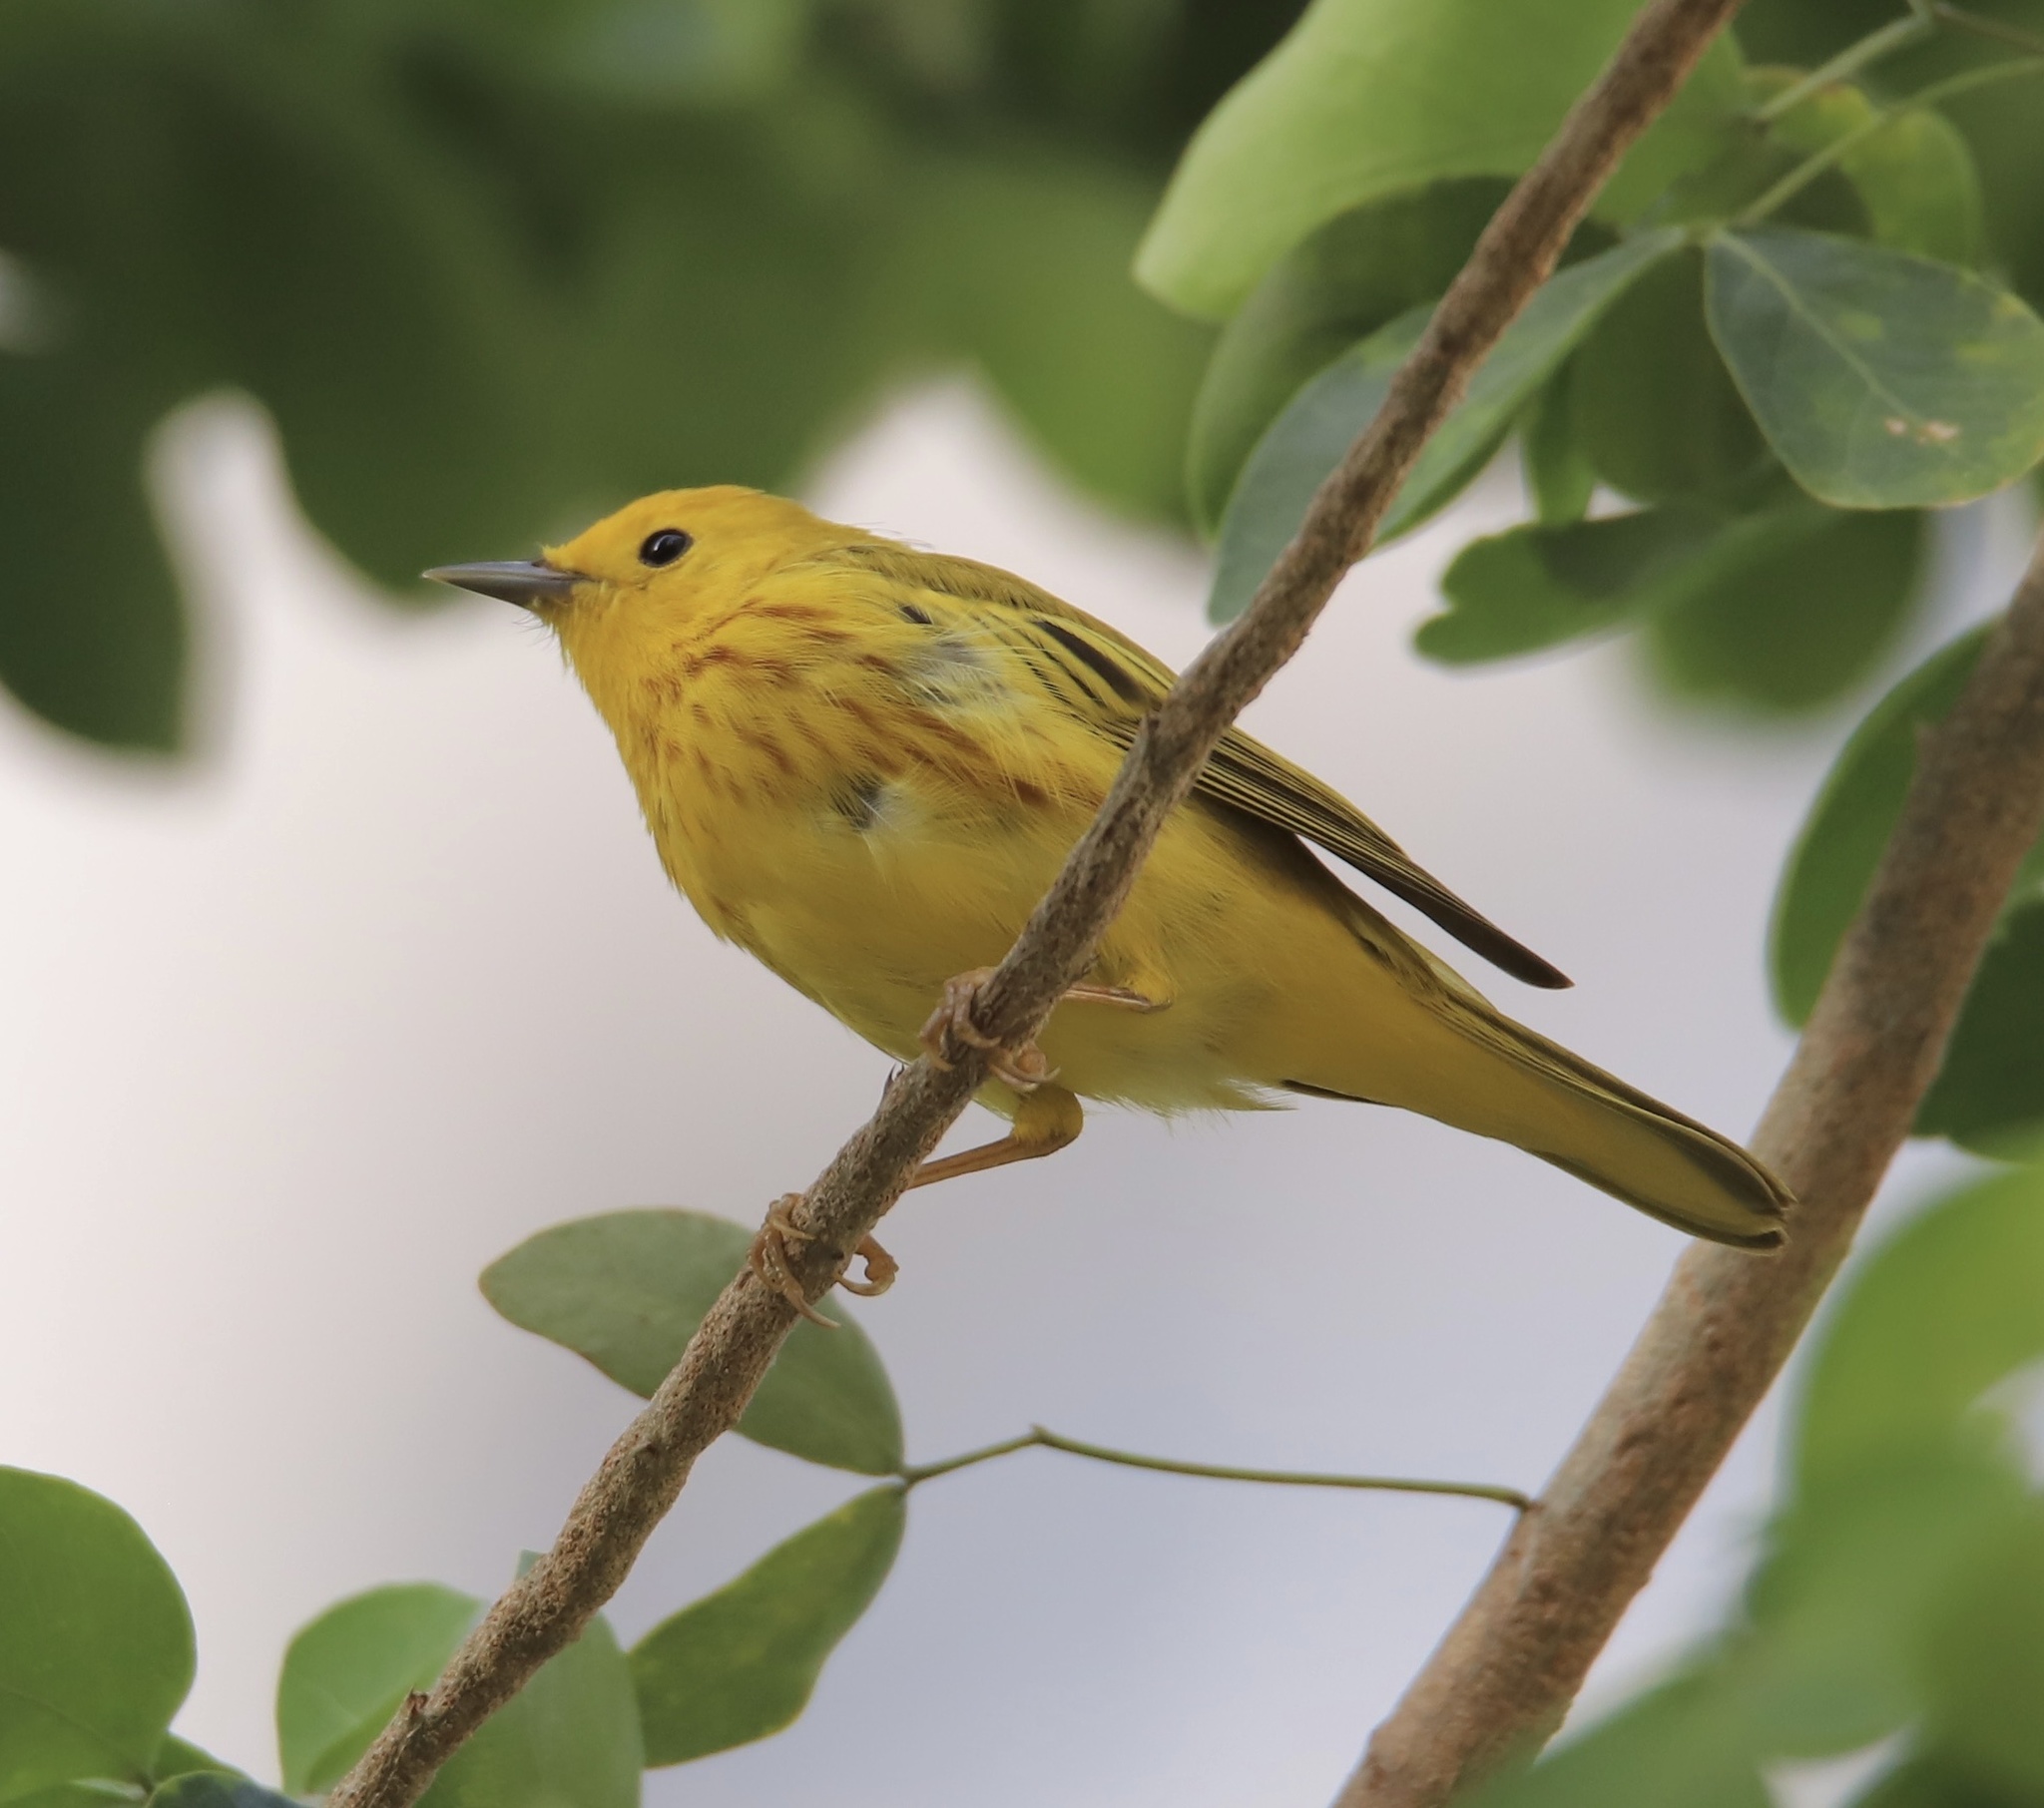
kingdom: Animalia
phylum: Chordata
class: Aves
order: Passeriformes
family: Parulidae
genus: Setophaga
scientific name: Setophaga petechia
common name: Yellow warbler
